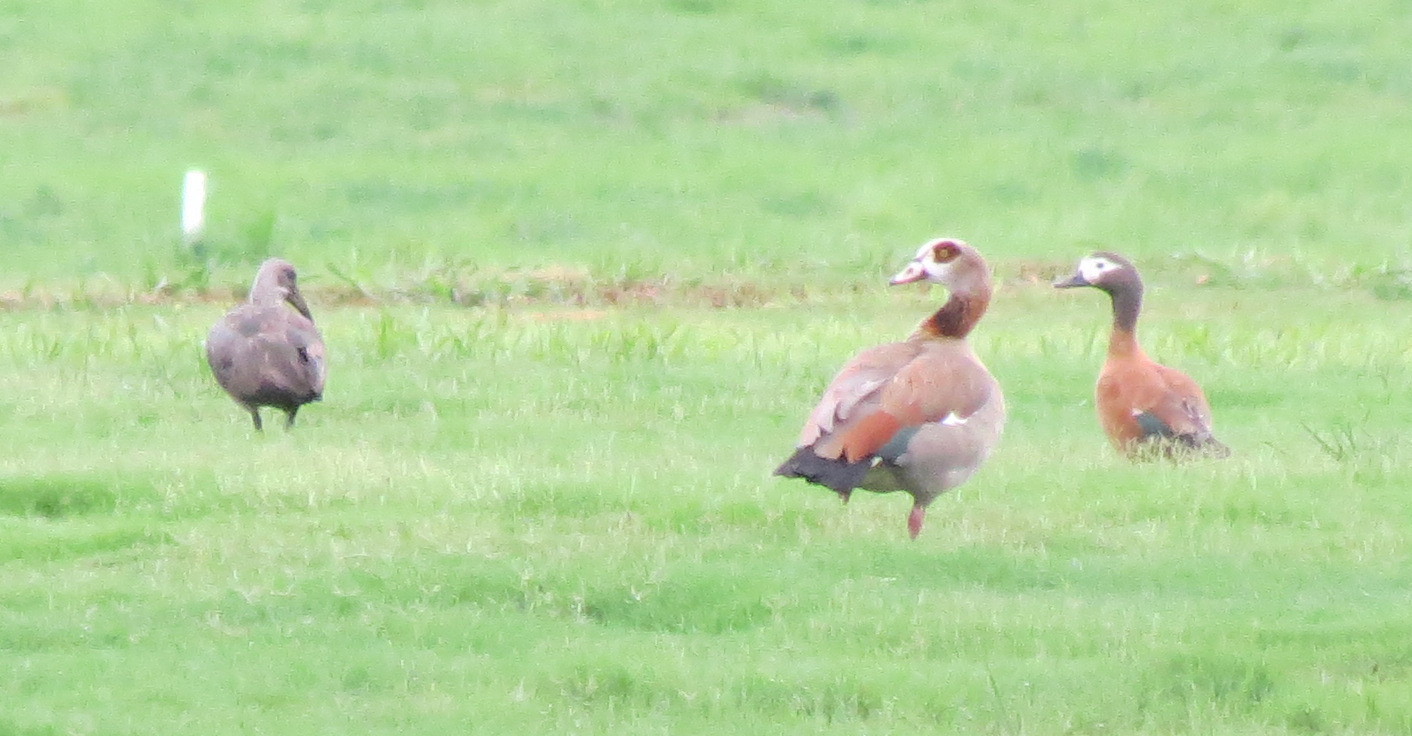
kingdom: Animalia
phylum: Chordata
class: Aves
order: Anseriformes
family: Anatidae
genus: Alopochen
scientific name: Alopochen aegyptiaca
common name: Egyptian goose
